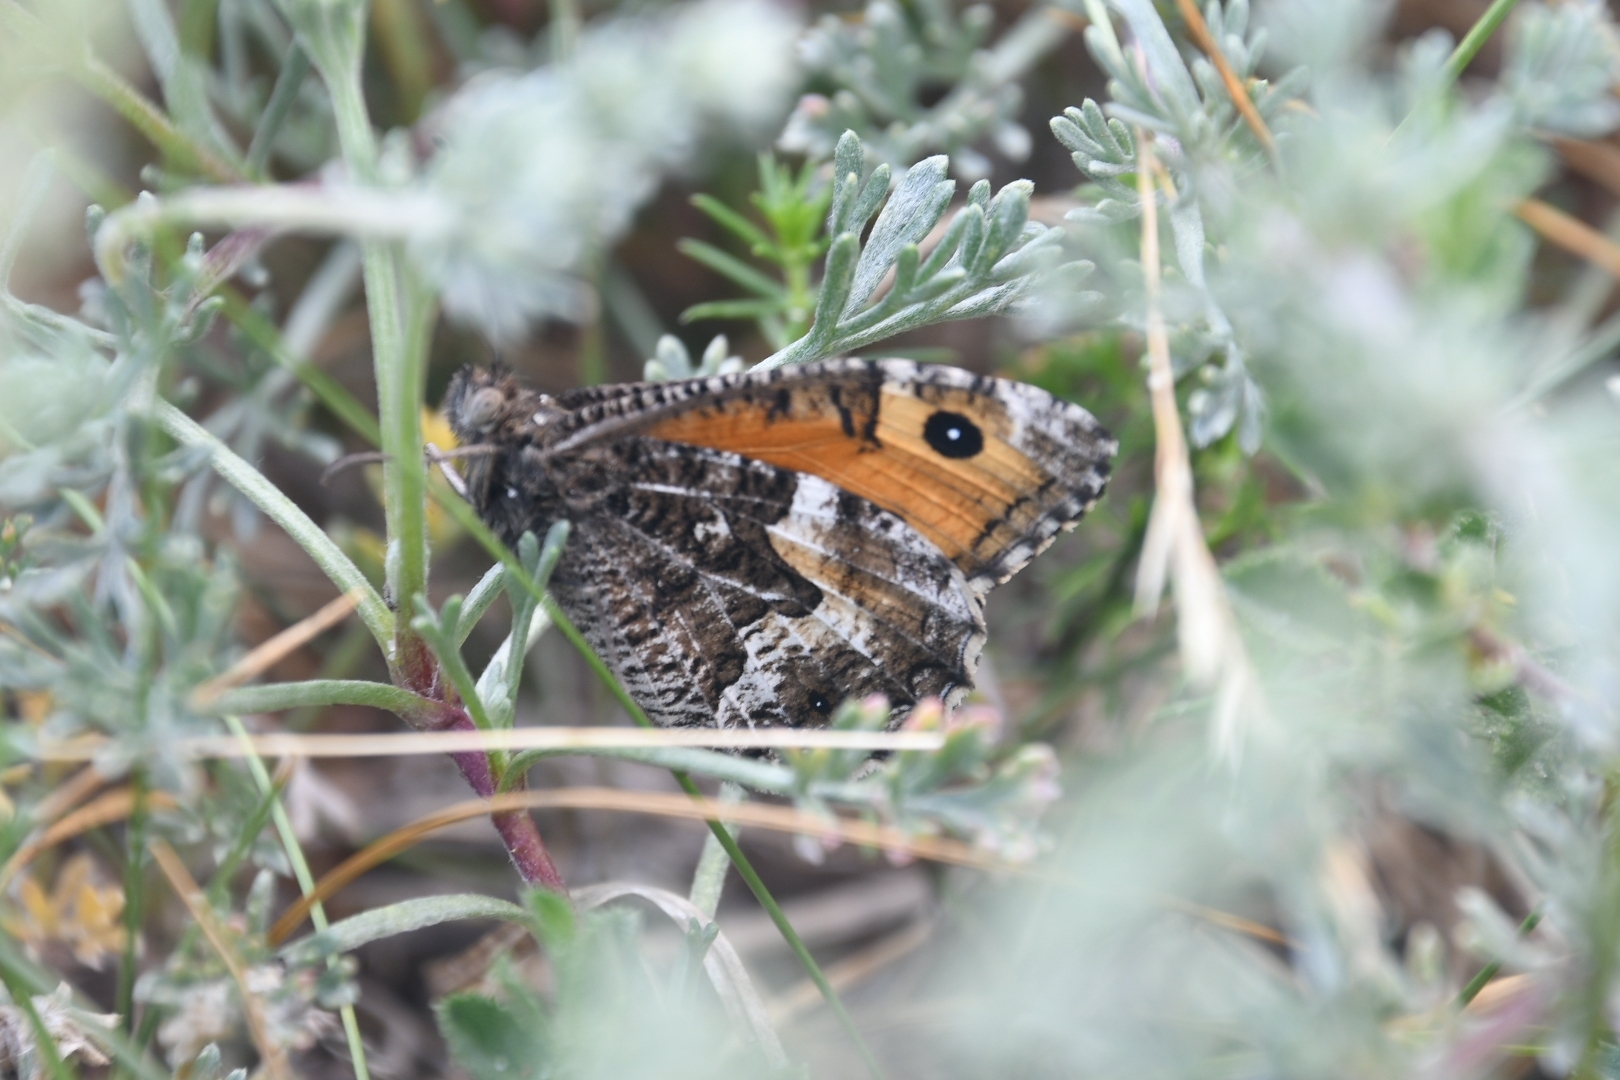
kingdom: Animalia
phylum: Arthropoda
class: Insecta
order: Lepidoptera
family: Nymphalidae
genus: Hipparchia
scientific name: Hipparchia semele
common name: Grayling
